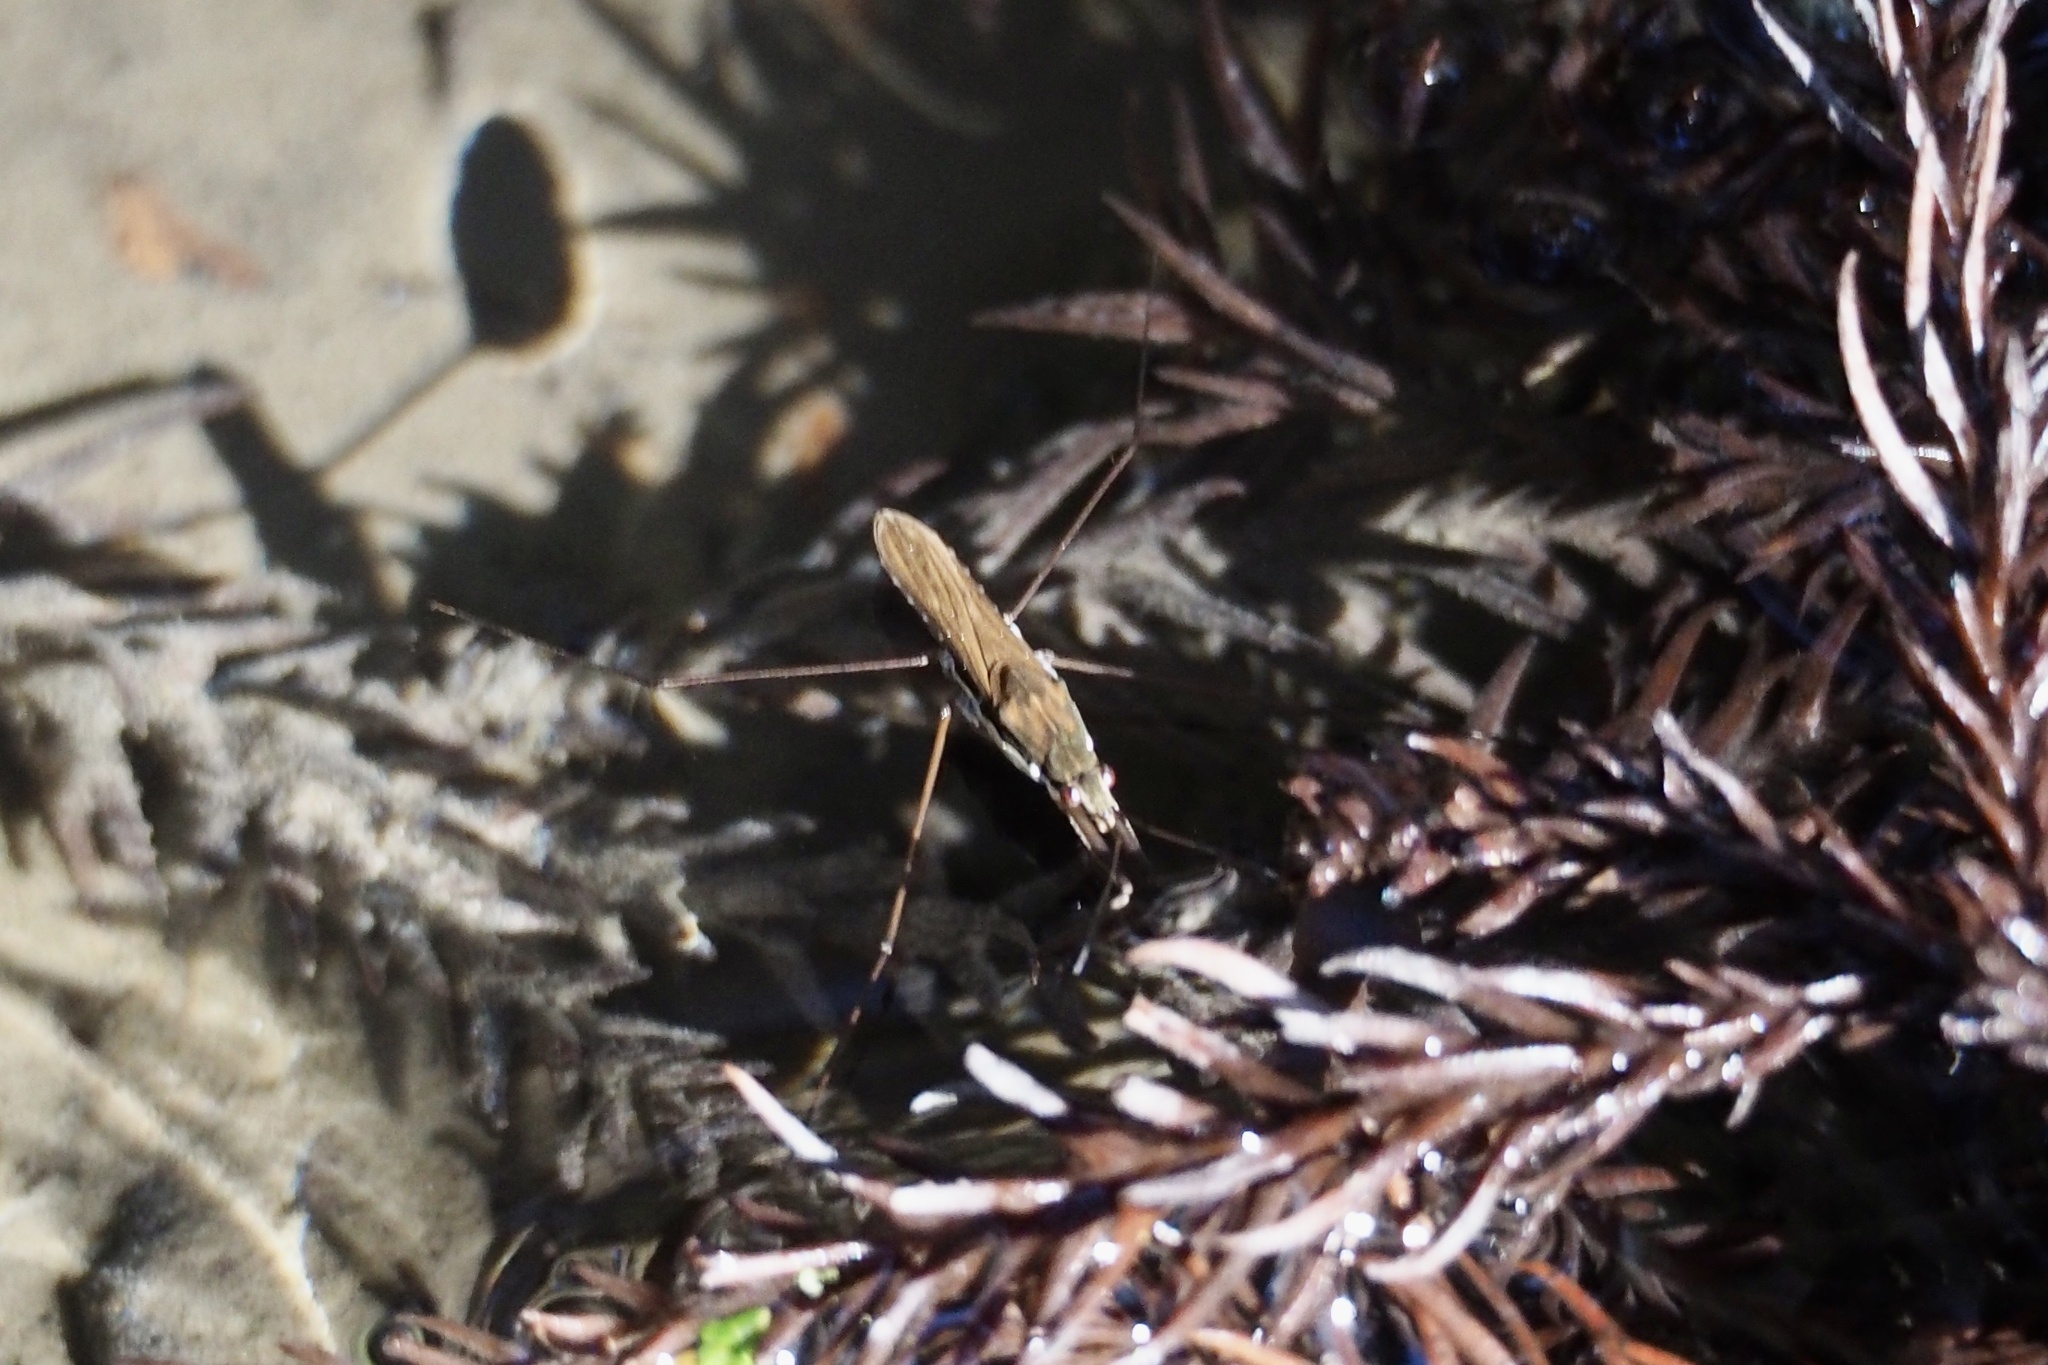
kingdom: Animalia
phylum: Arthropoda
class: Insecta
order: Hemiptera
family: Gerridae
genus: Gerris
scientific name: Gerris gracilicornis
